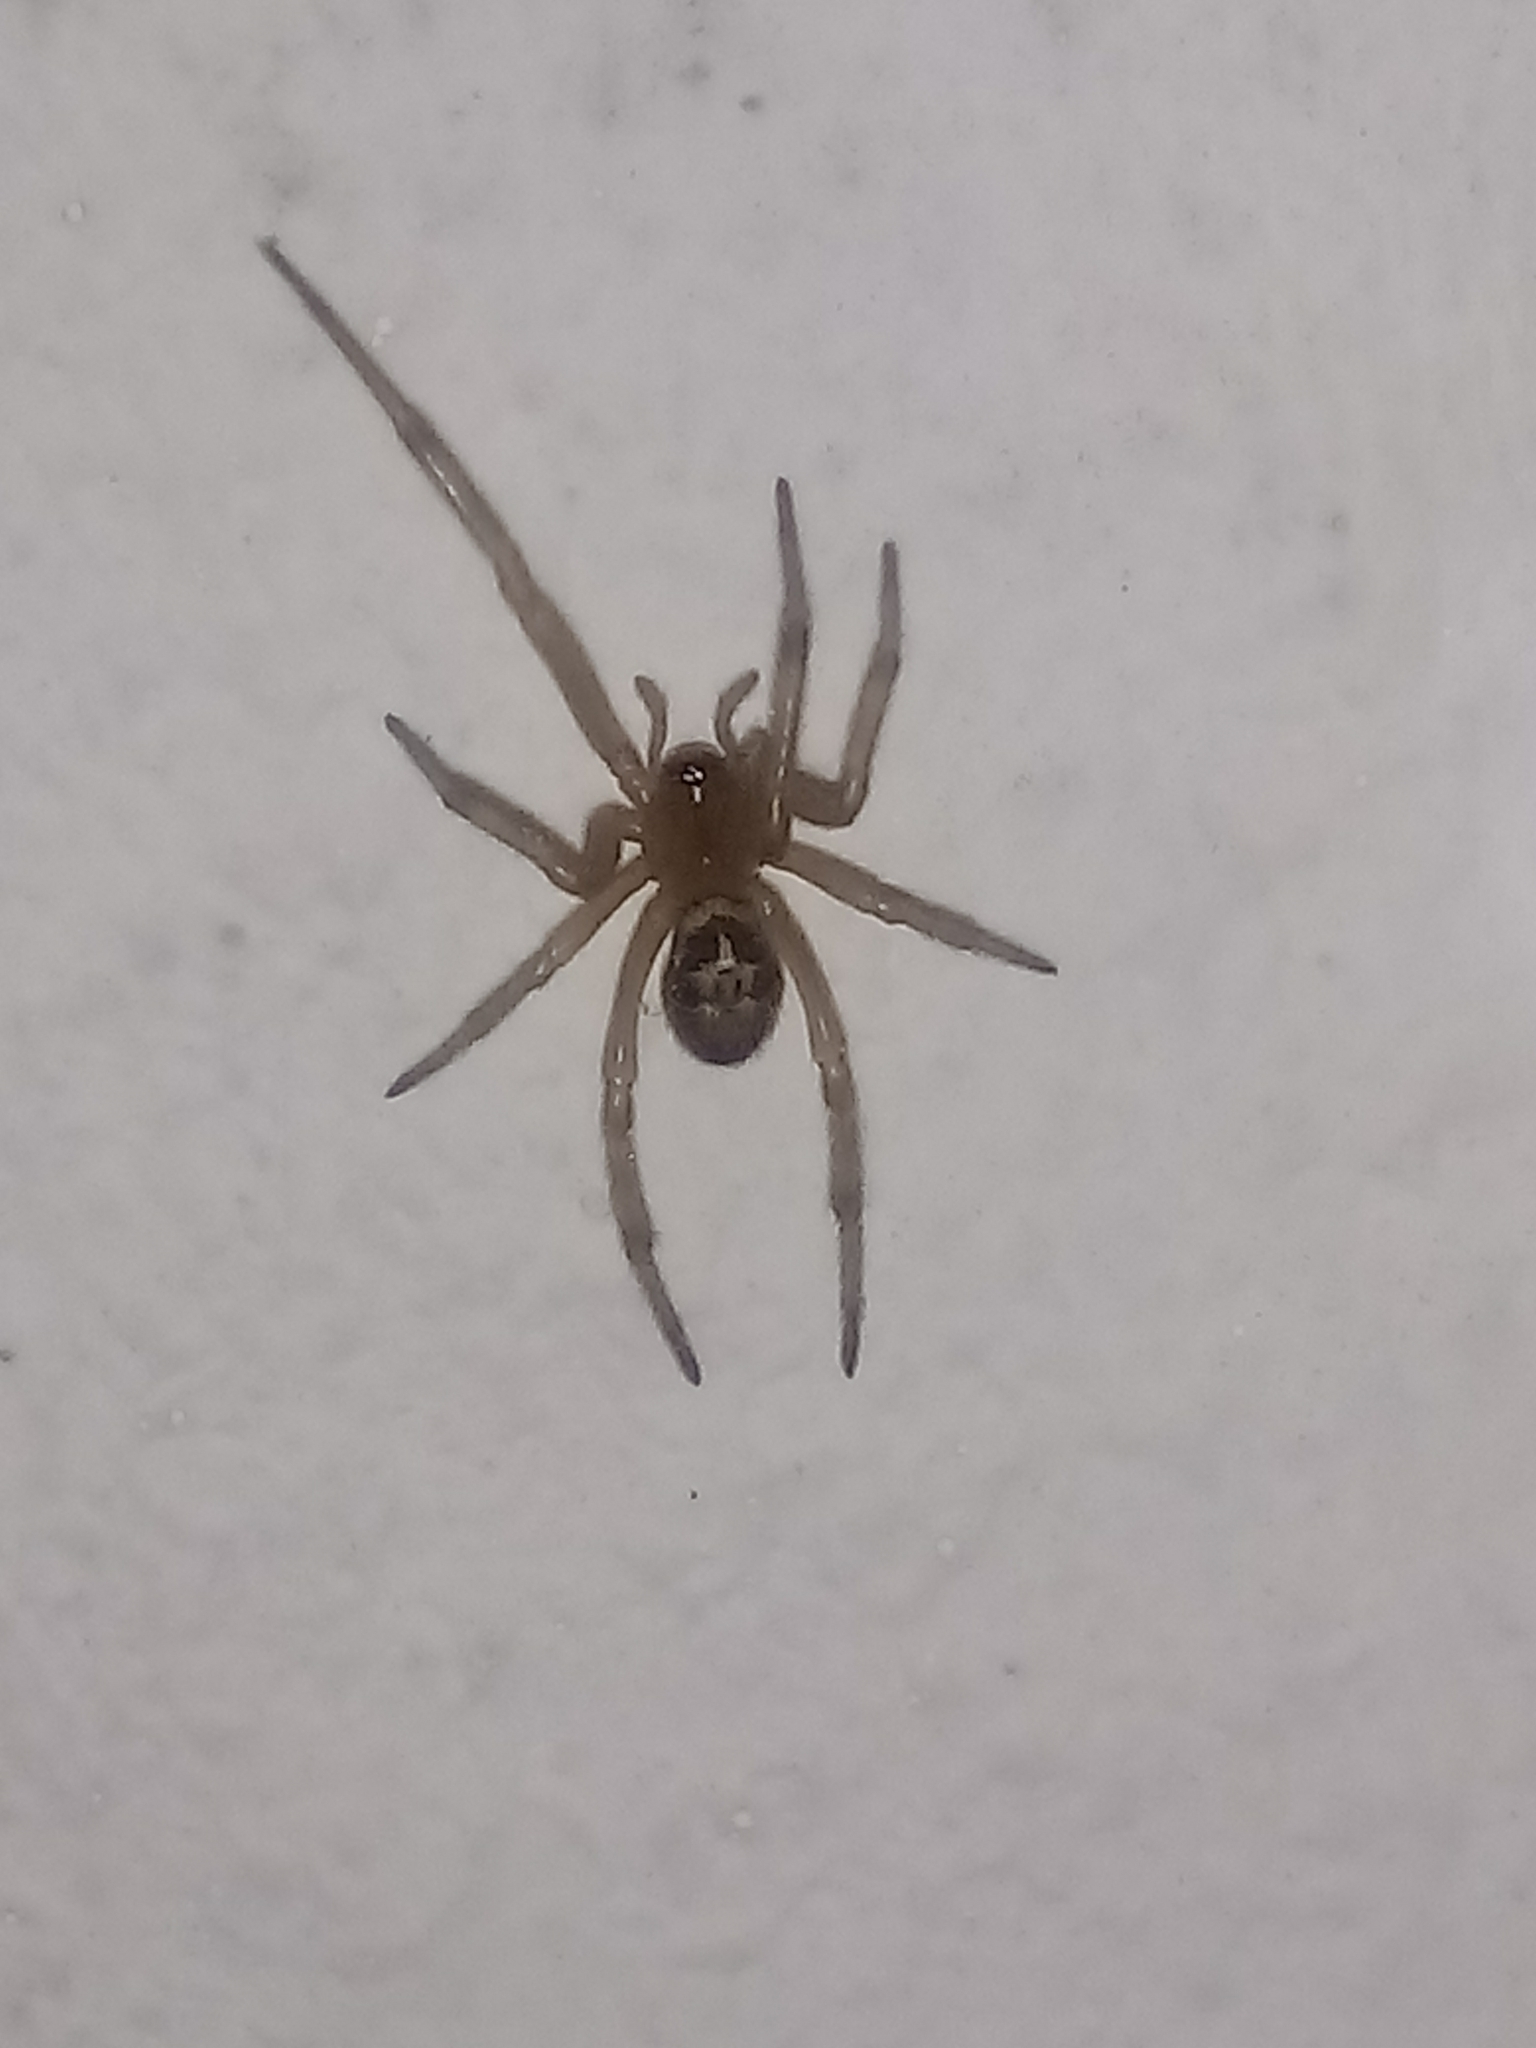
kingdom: Animalia
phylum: Arthropoda
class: Arachnida
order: Araneae
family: Theridiidae
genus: Steatoda
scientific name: Steatoda nobilis
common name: Cobweb weaver
